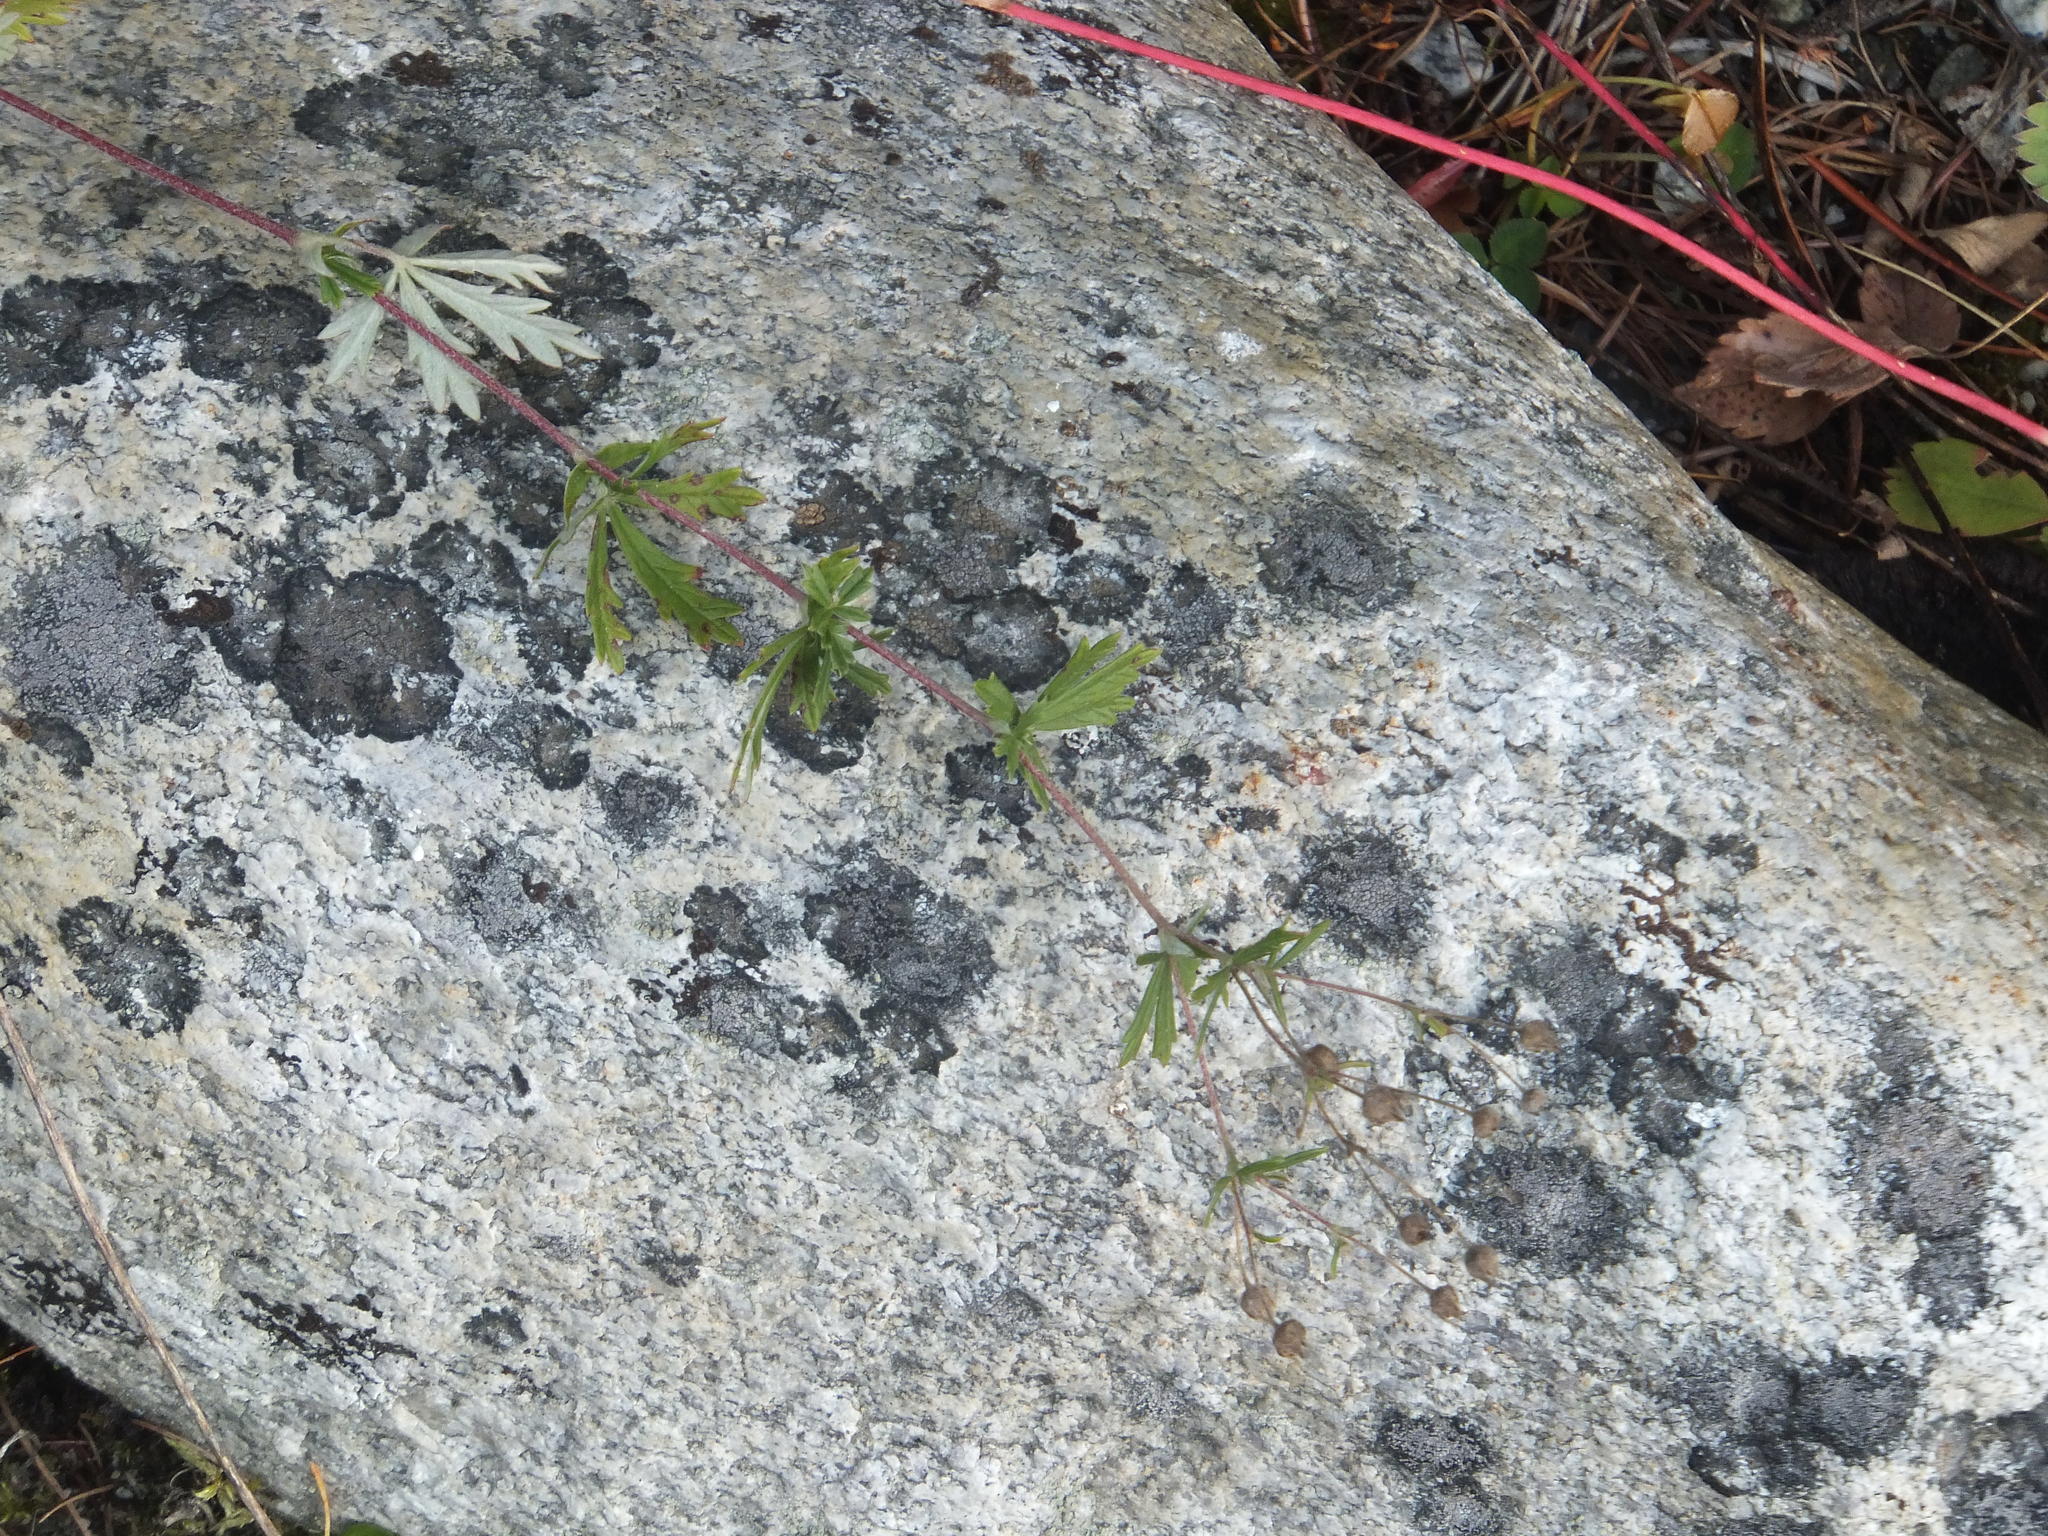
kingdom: Plantae
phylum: Tracheophyta
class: Magnoliopsida
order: Rosales
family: Rosaceae
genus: Potentilla
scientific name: Potentilla argentea
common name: Hoary cinquefoil
